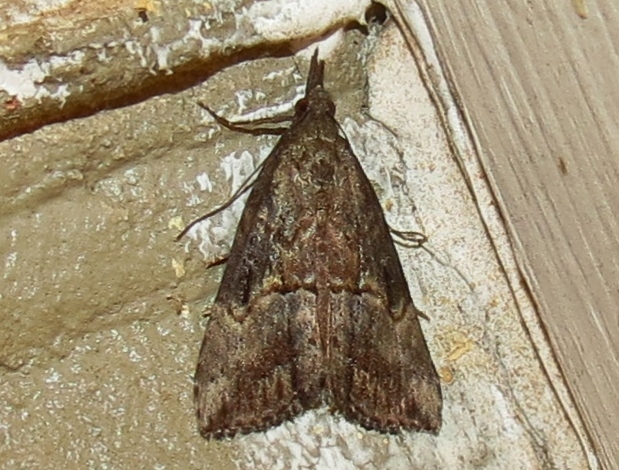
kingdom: Animalia
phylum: Arthropoda
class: Insecta
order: Lepidoptera
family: Erebidae
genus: Hypena
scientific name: Hypena scabra
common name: Green cloverworm
